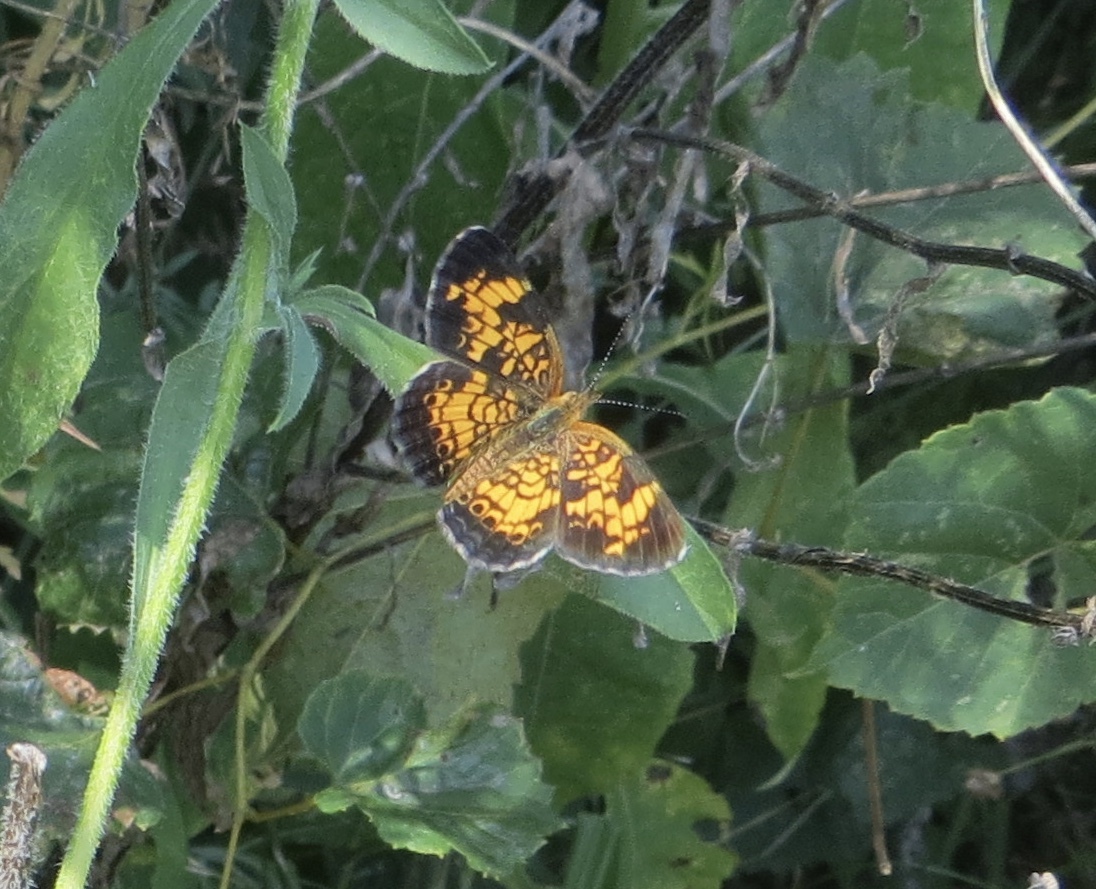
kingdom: Animalia
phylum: Arthropoda
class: Insecta
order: Lepidoptera
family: Nymphalidae
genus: Phyciodes
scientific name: Phyciodes tharos
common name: Pearl crescent
